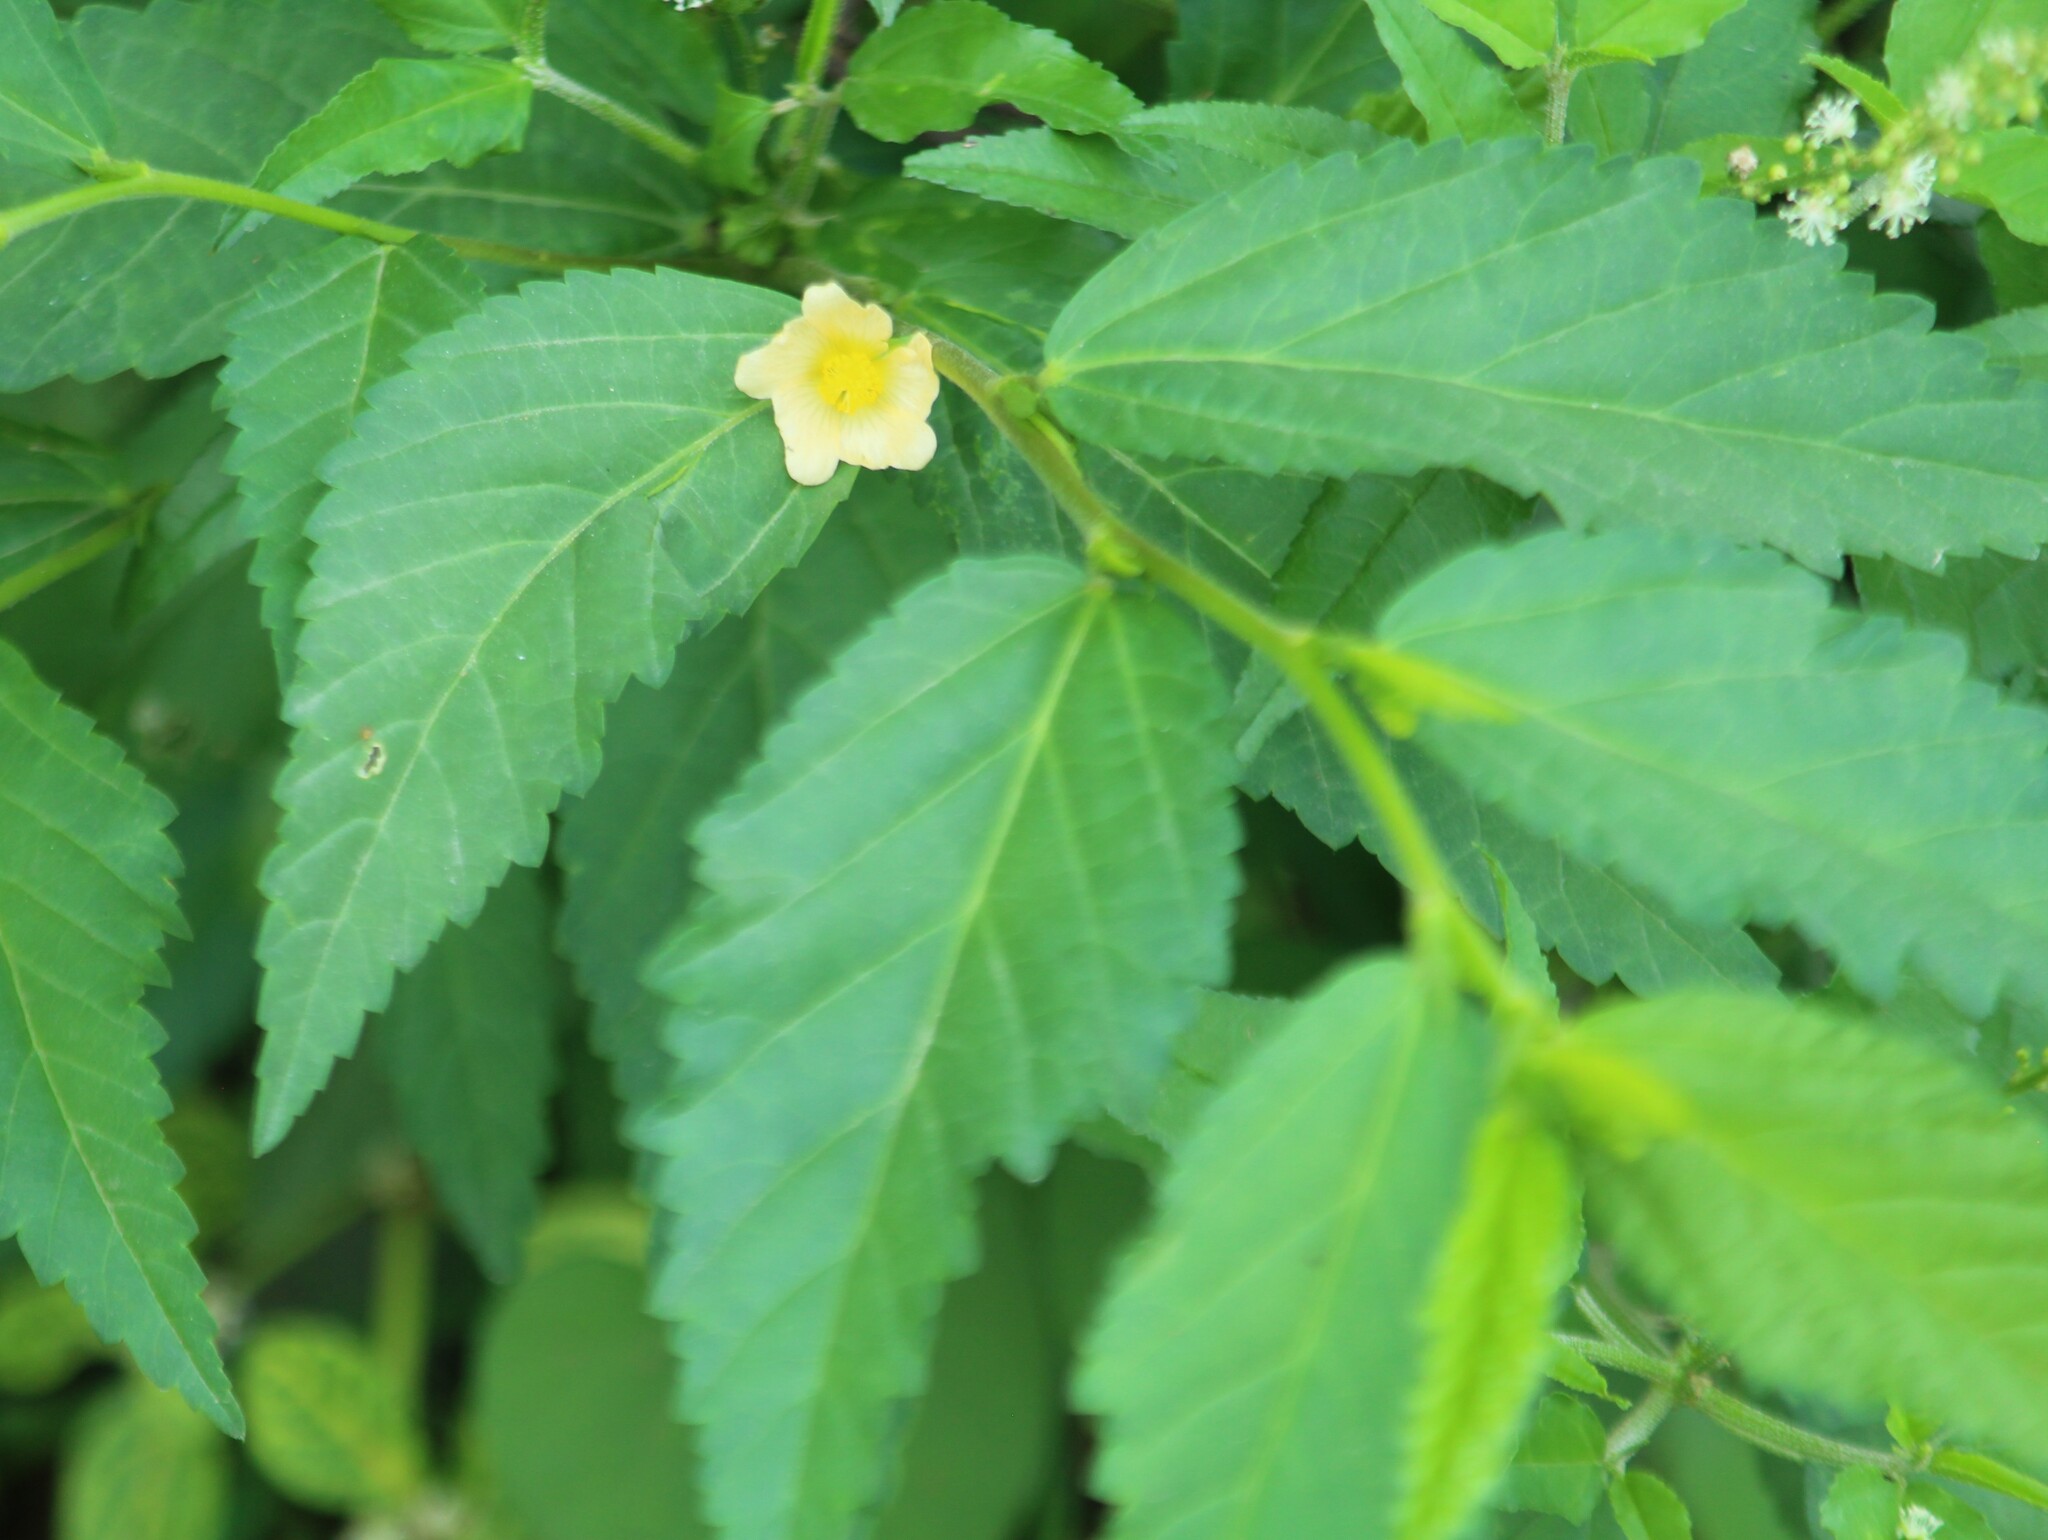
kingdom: Plantae
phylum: Tracheophyta
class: Magnoliopsida
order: Malvales
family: Malvaceae
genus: Sida
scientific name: Sida acuta
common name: Common wireweed
